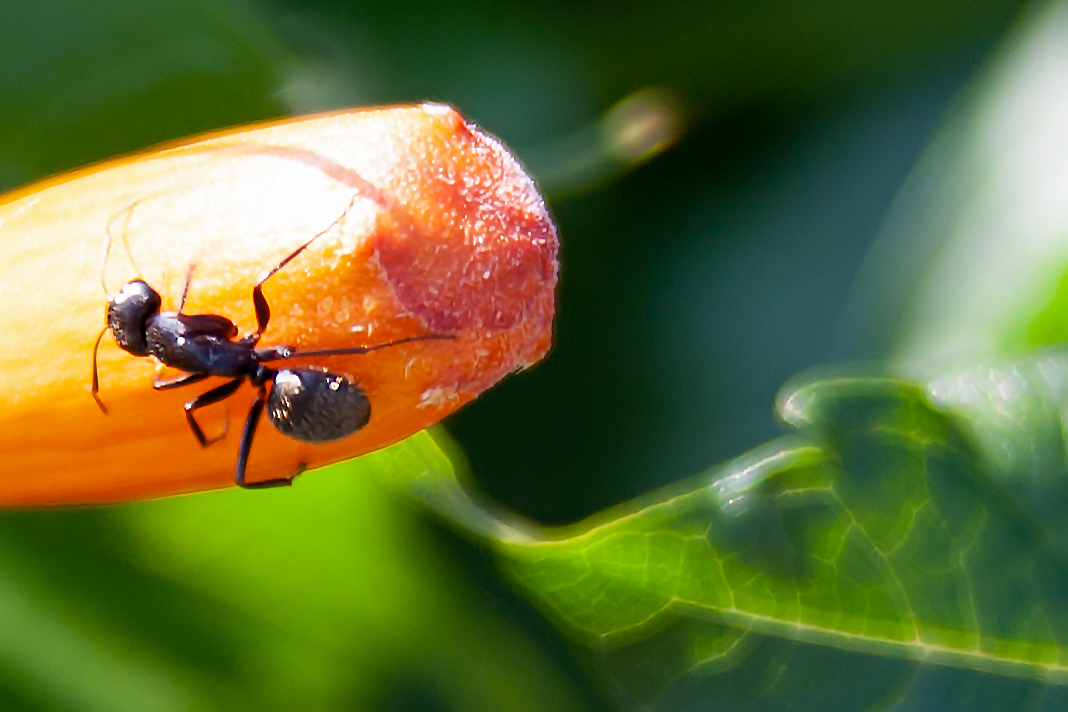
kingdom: Animalia
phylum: Arthropoda
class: Insecta
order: Hymenoptera
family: Formicidae
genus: Camponotus
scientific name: Camponotus pennsylvanicus
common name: Black carpenter ant
